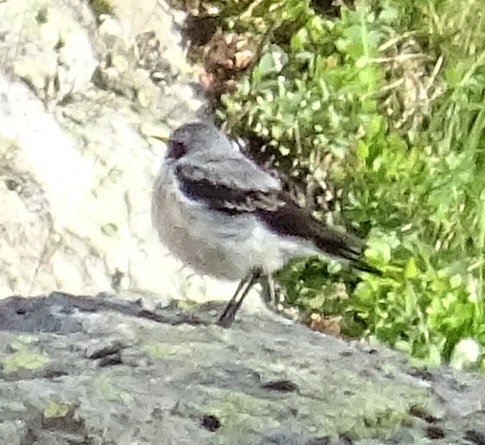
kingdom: Animalia
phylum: Chordata
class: Aves
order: Passeriformes
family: Muscicapidae
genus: Oenanthe
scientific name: Oenanthe oenanthe
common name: Northern wheatear
